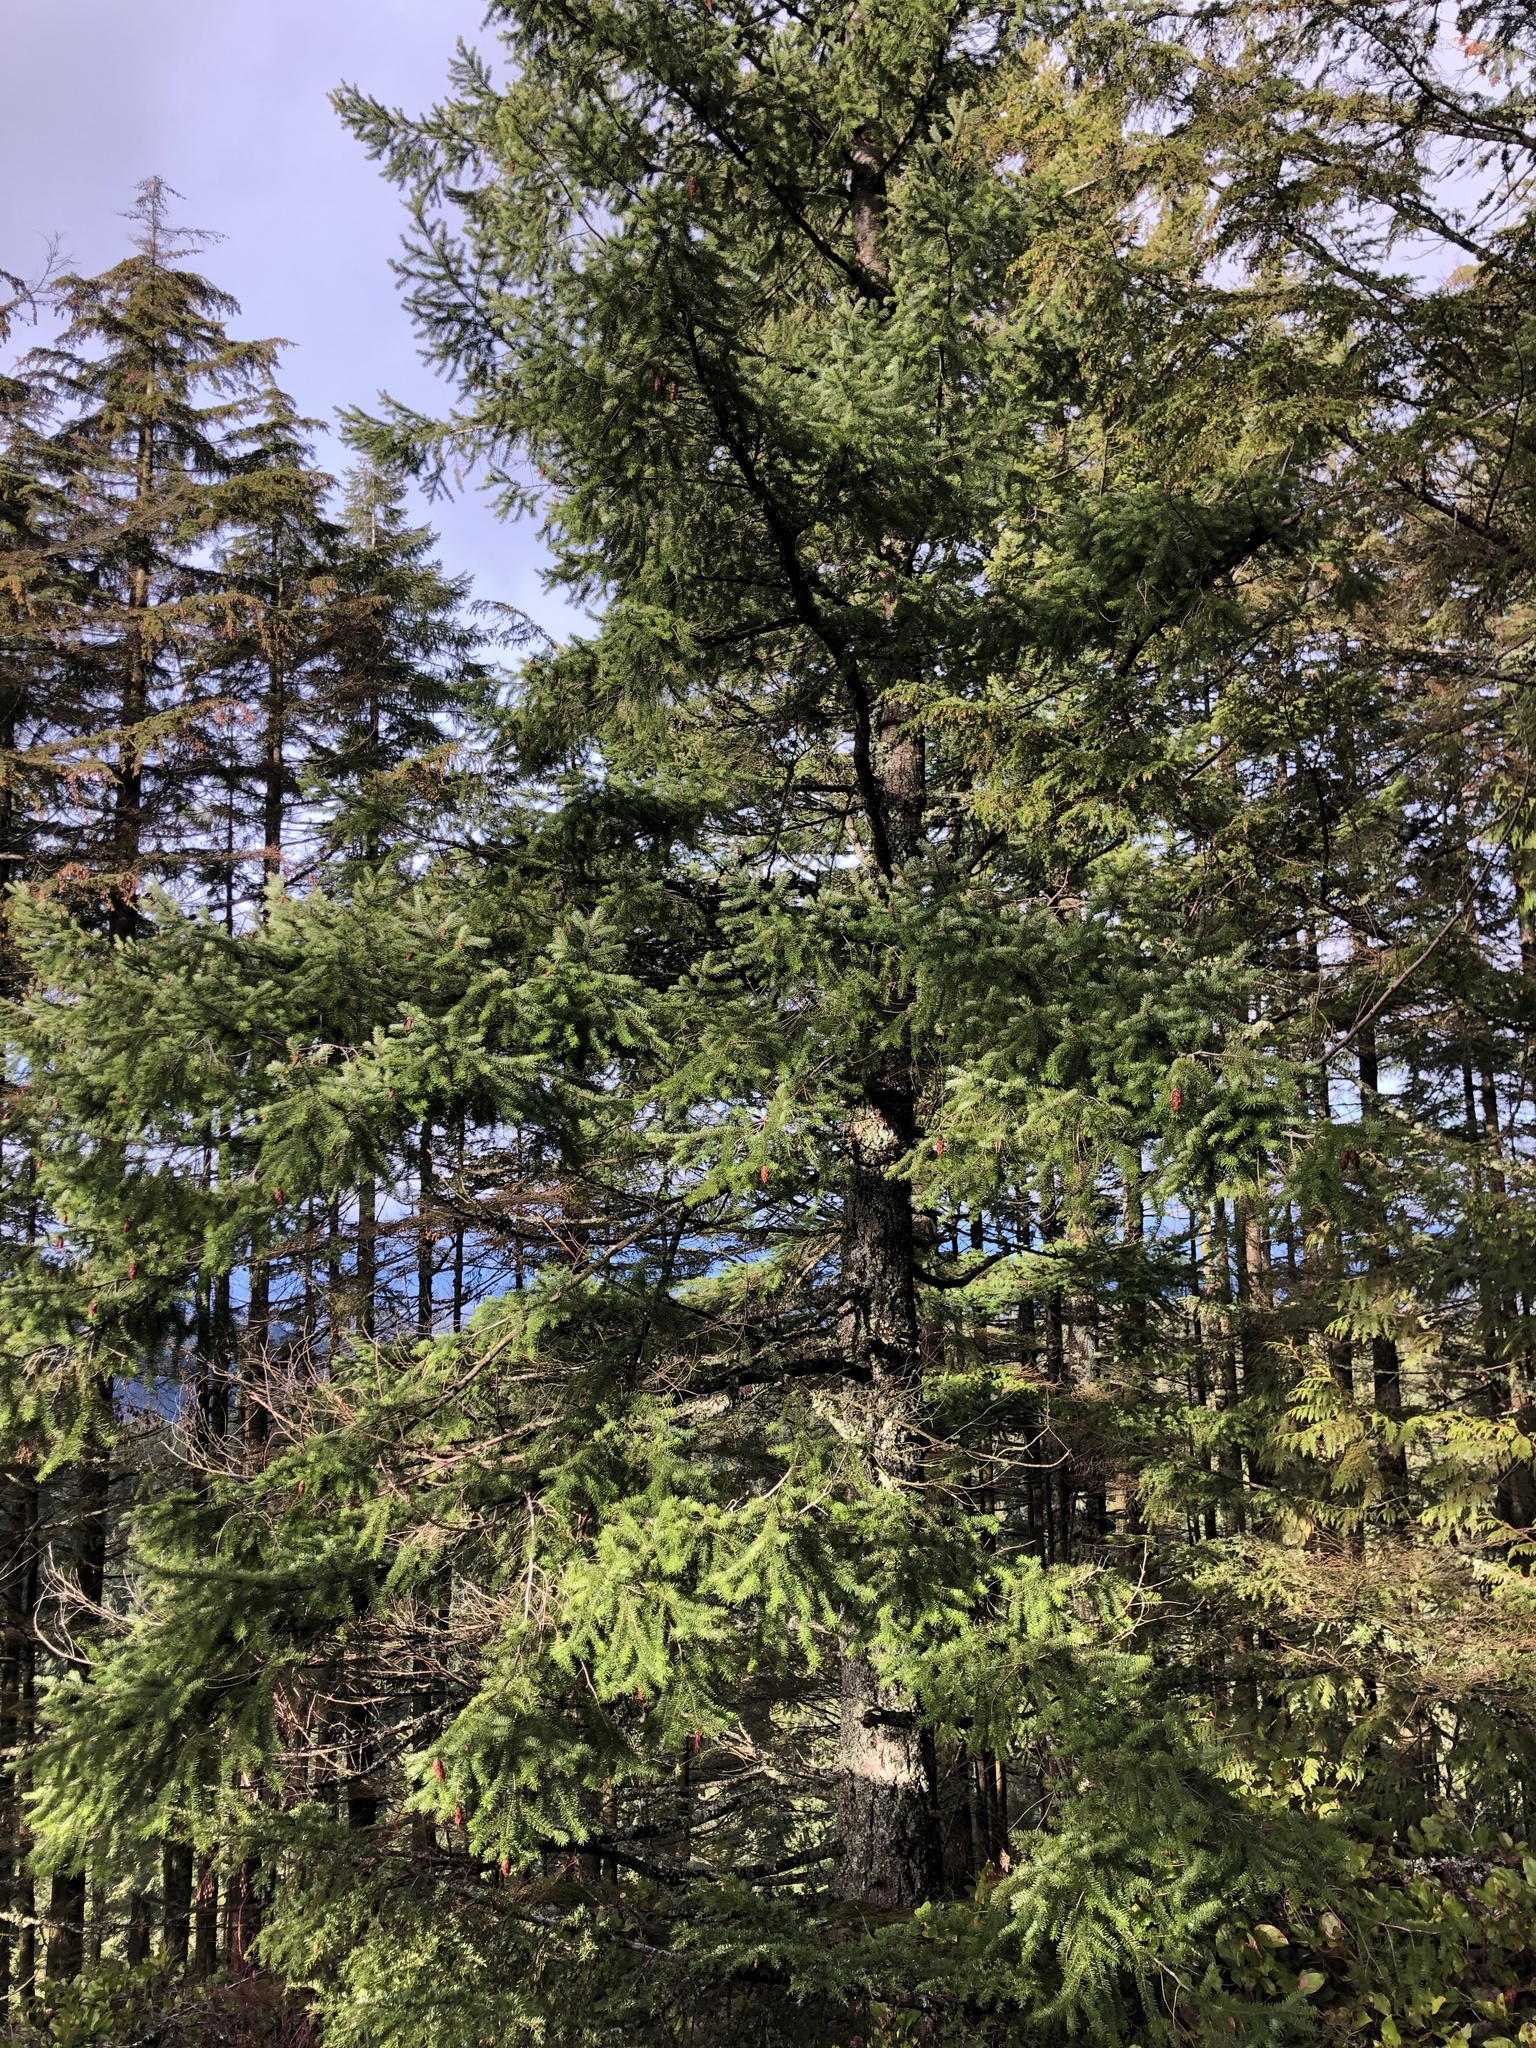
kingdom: Plantae
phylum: Tracheophyta
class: Pinopsida
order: Pinales
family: Pinaceae
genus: Pseudotsuga
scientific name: Pseudotsuga menziesii
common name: Douglas fir
